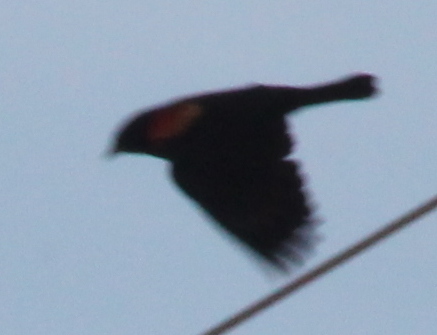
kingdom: Animalia
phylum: Chordata
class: Aves
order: Passeriformes
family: Icteridae
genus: Agelaius
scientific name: Agelaius phoeniceus
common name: Red-winged blackbird
